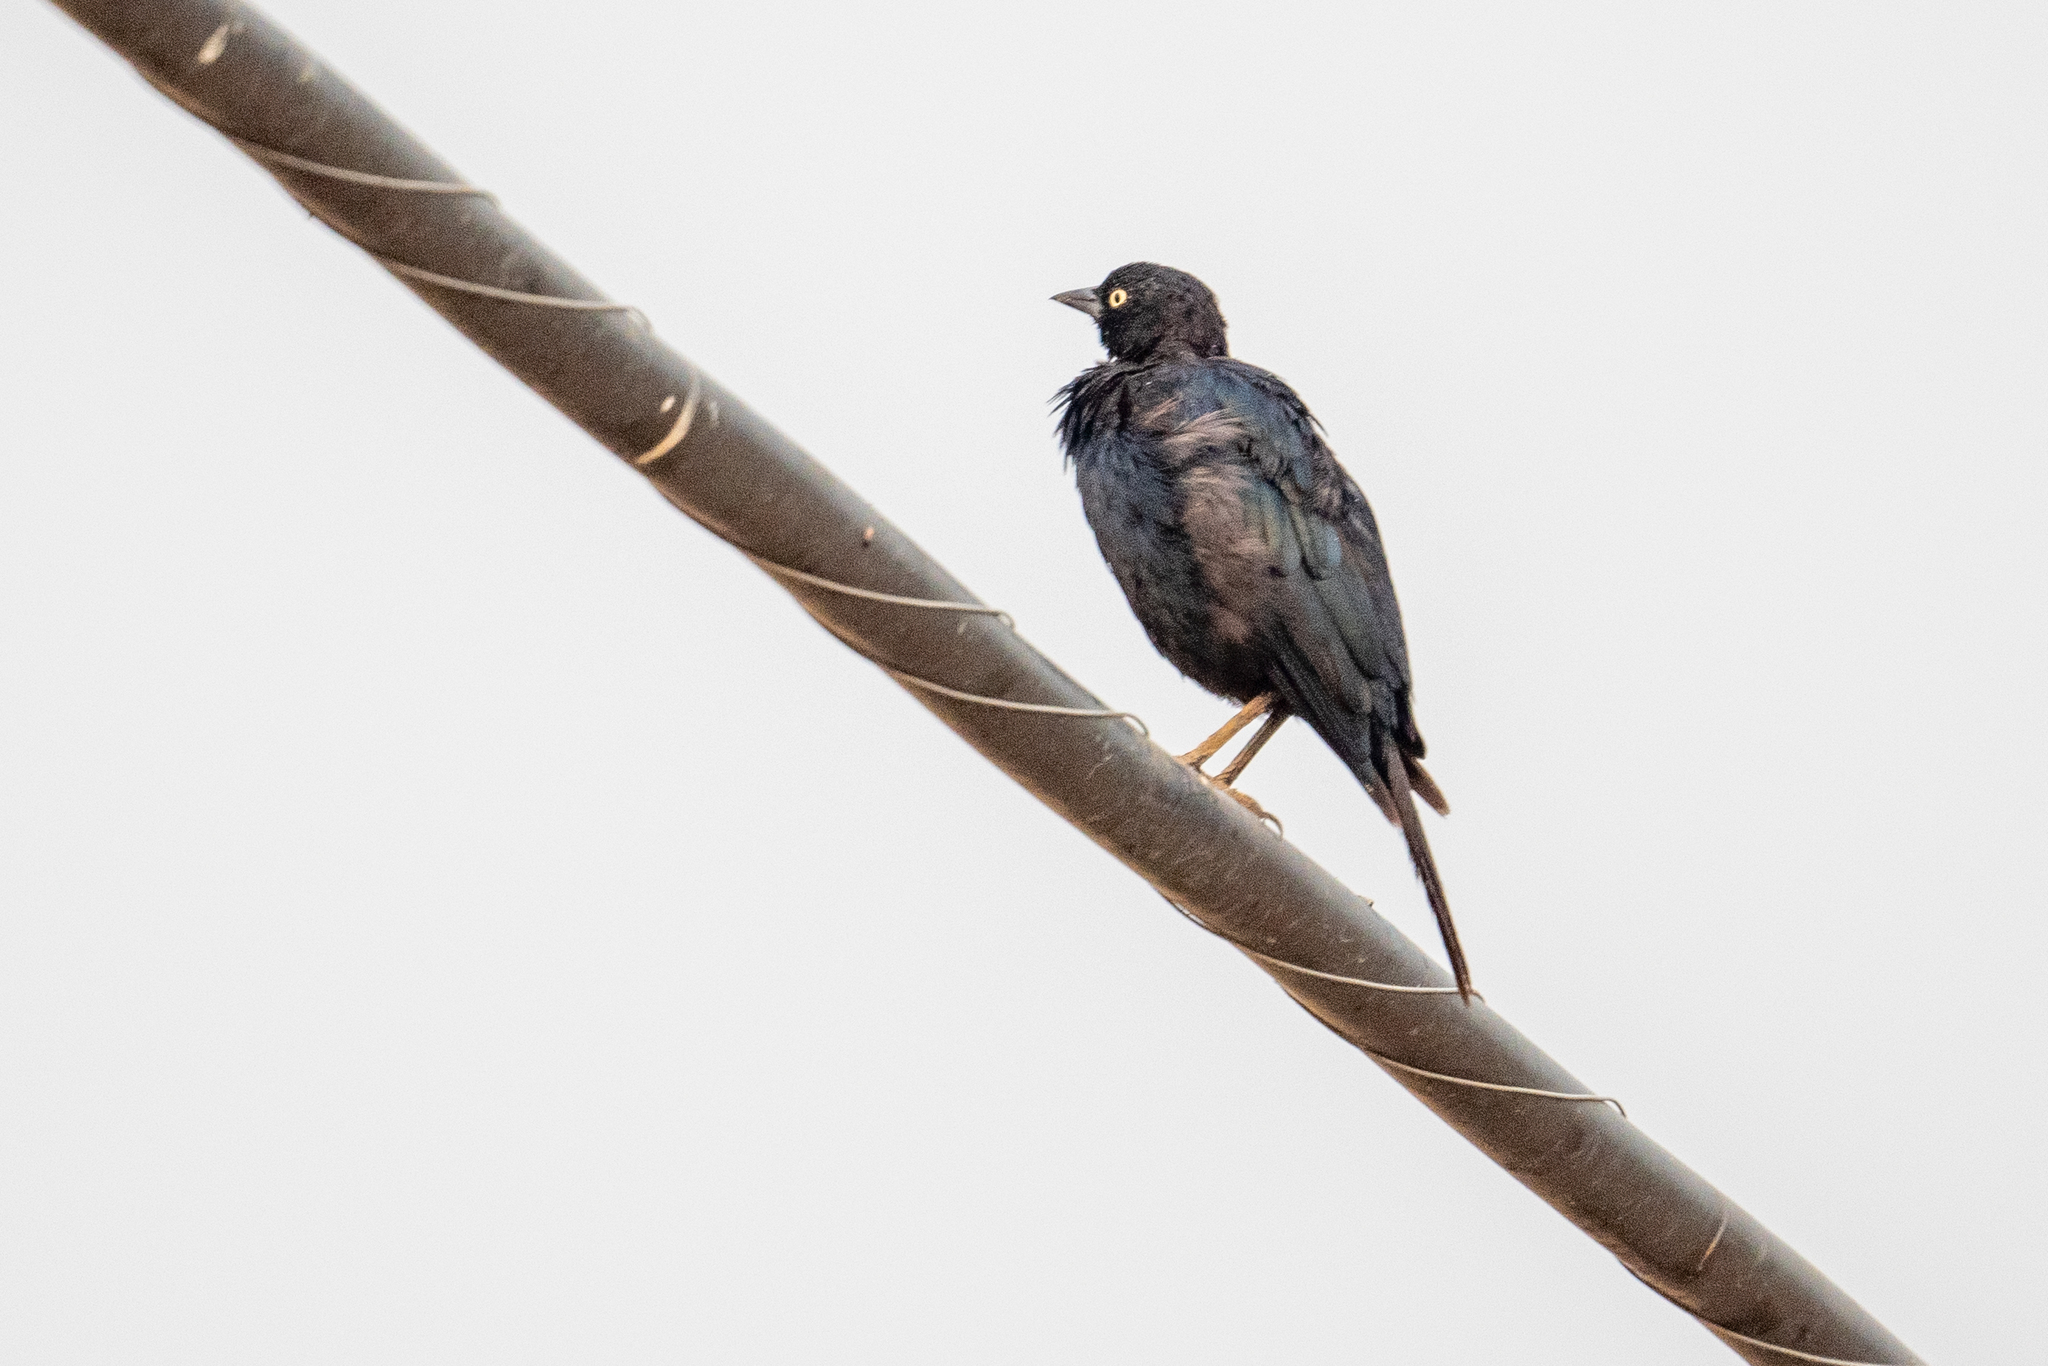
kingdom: Animalia
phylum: Chordata
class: Aves
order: Passeriformes
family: Icteridae
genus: Euphagus
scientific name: Euphagus cyanocephalus
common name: Brewer's blackbird
